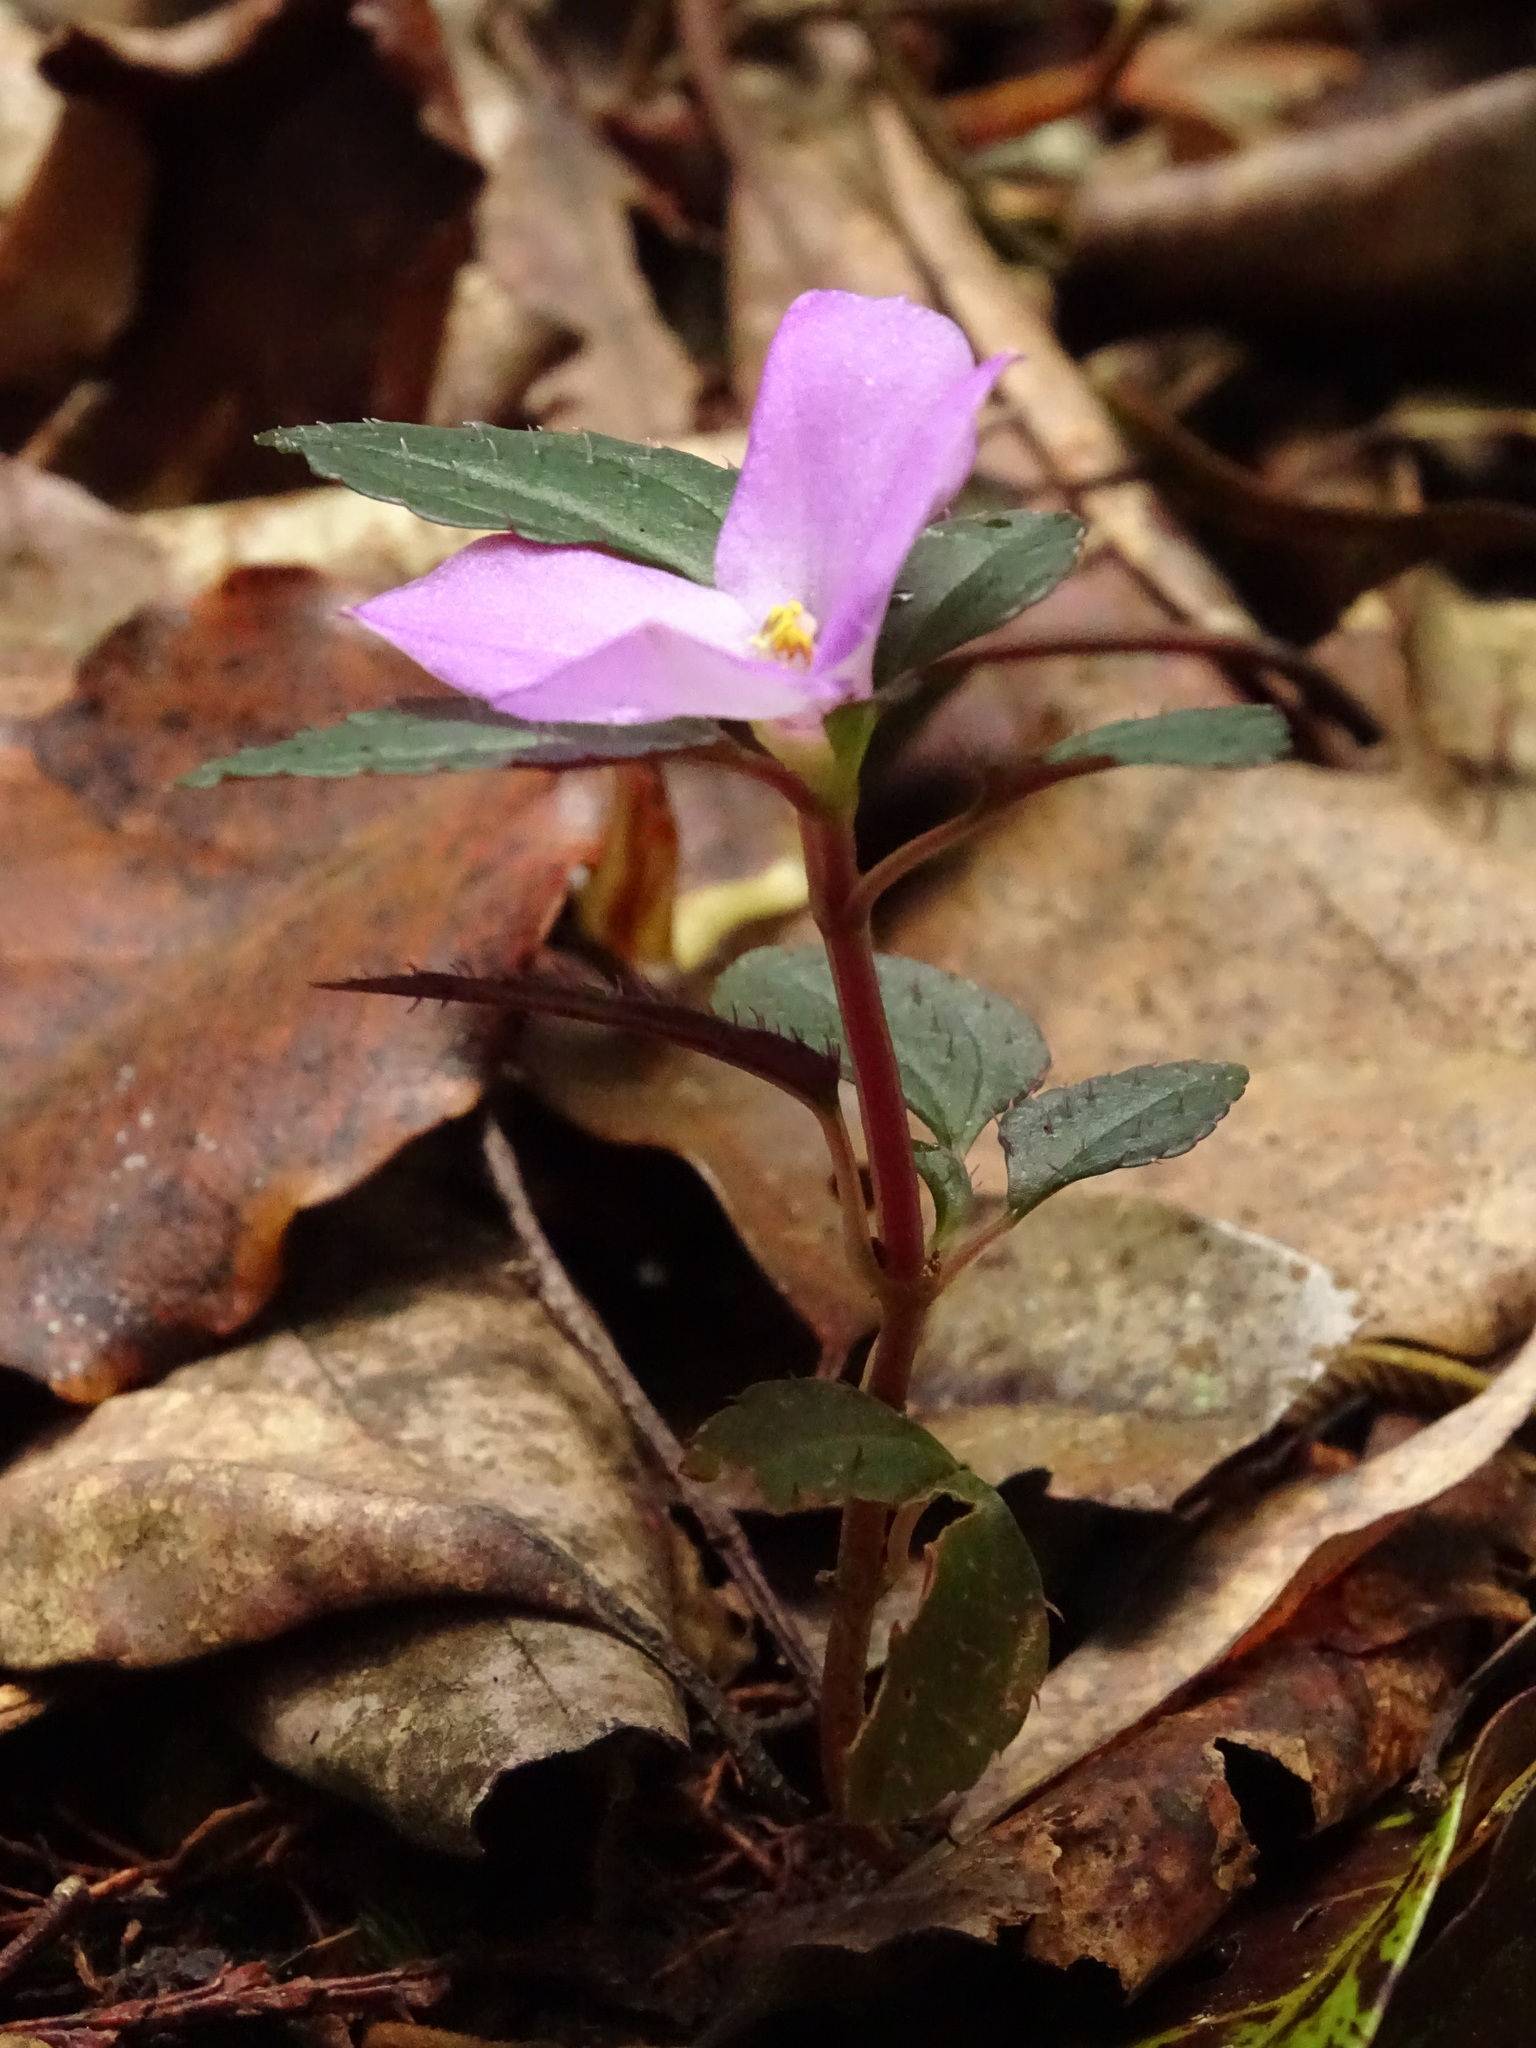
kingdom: Plantae
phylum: Tracheophyta
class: Magnoliopsida
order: Myrtales
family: Melastomataceae
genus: Sarcopyramis
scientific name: Sarcopyramis bodinieri
